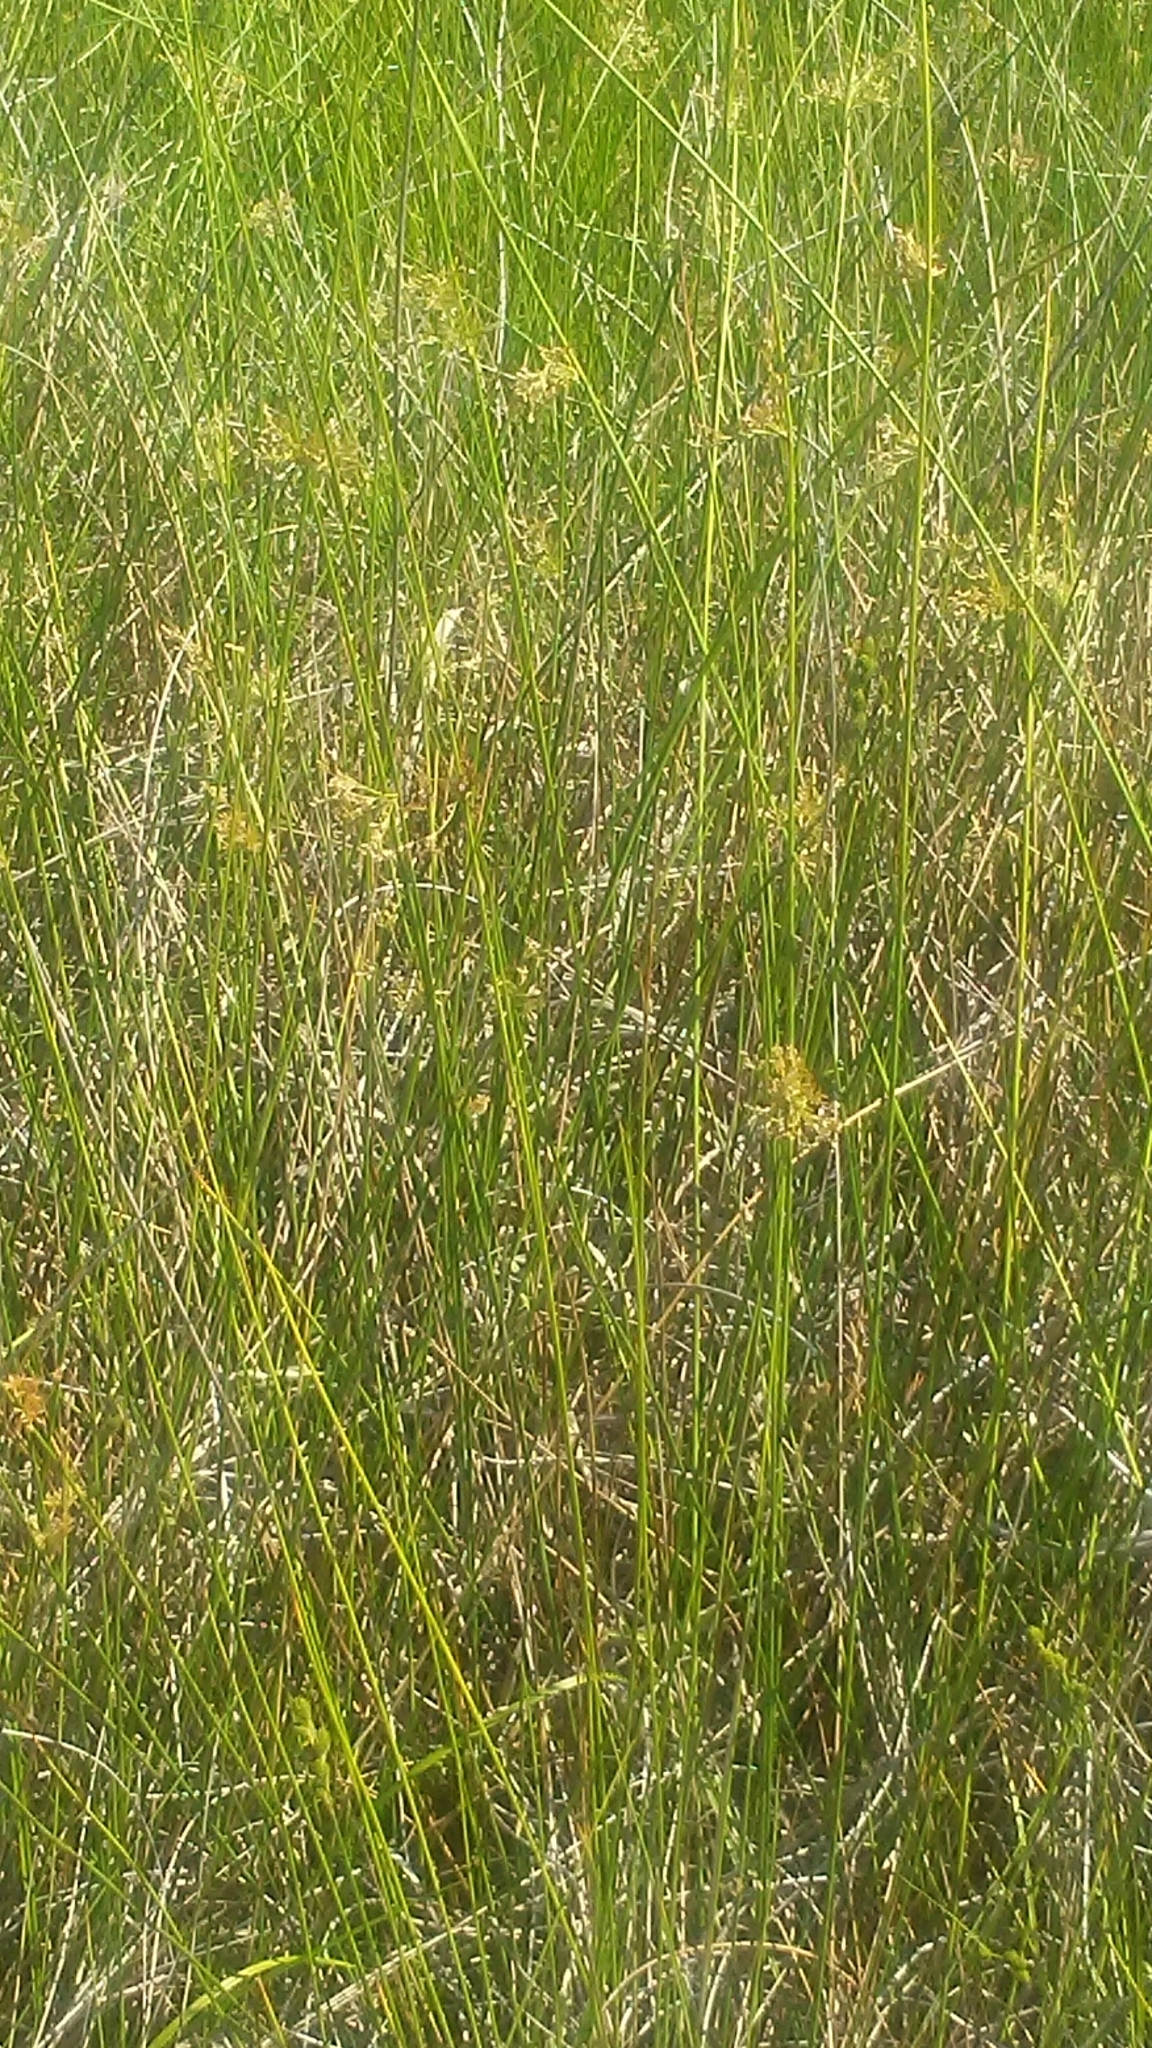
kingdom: Plantae
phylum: Tracheophyta
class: Liliopsida
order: Poales
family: Juncaceae
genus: Juncus
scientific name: Juncus effusus
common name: Soft rush
